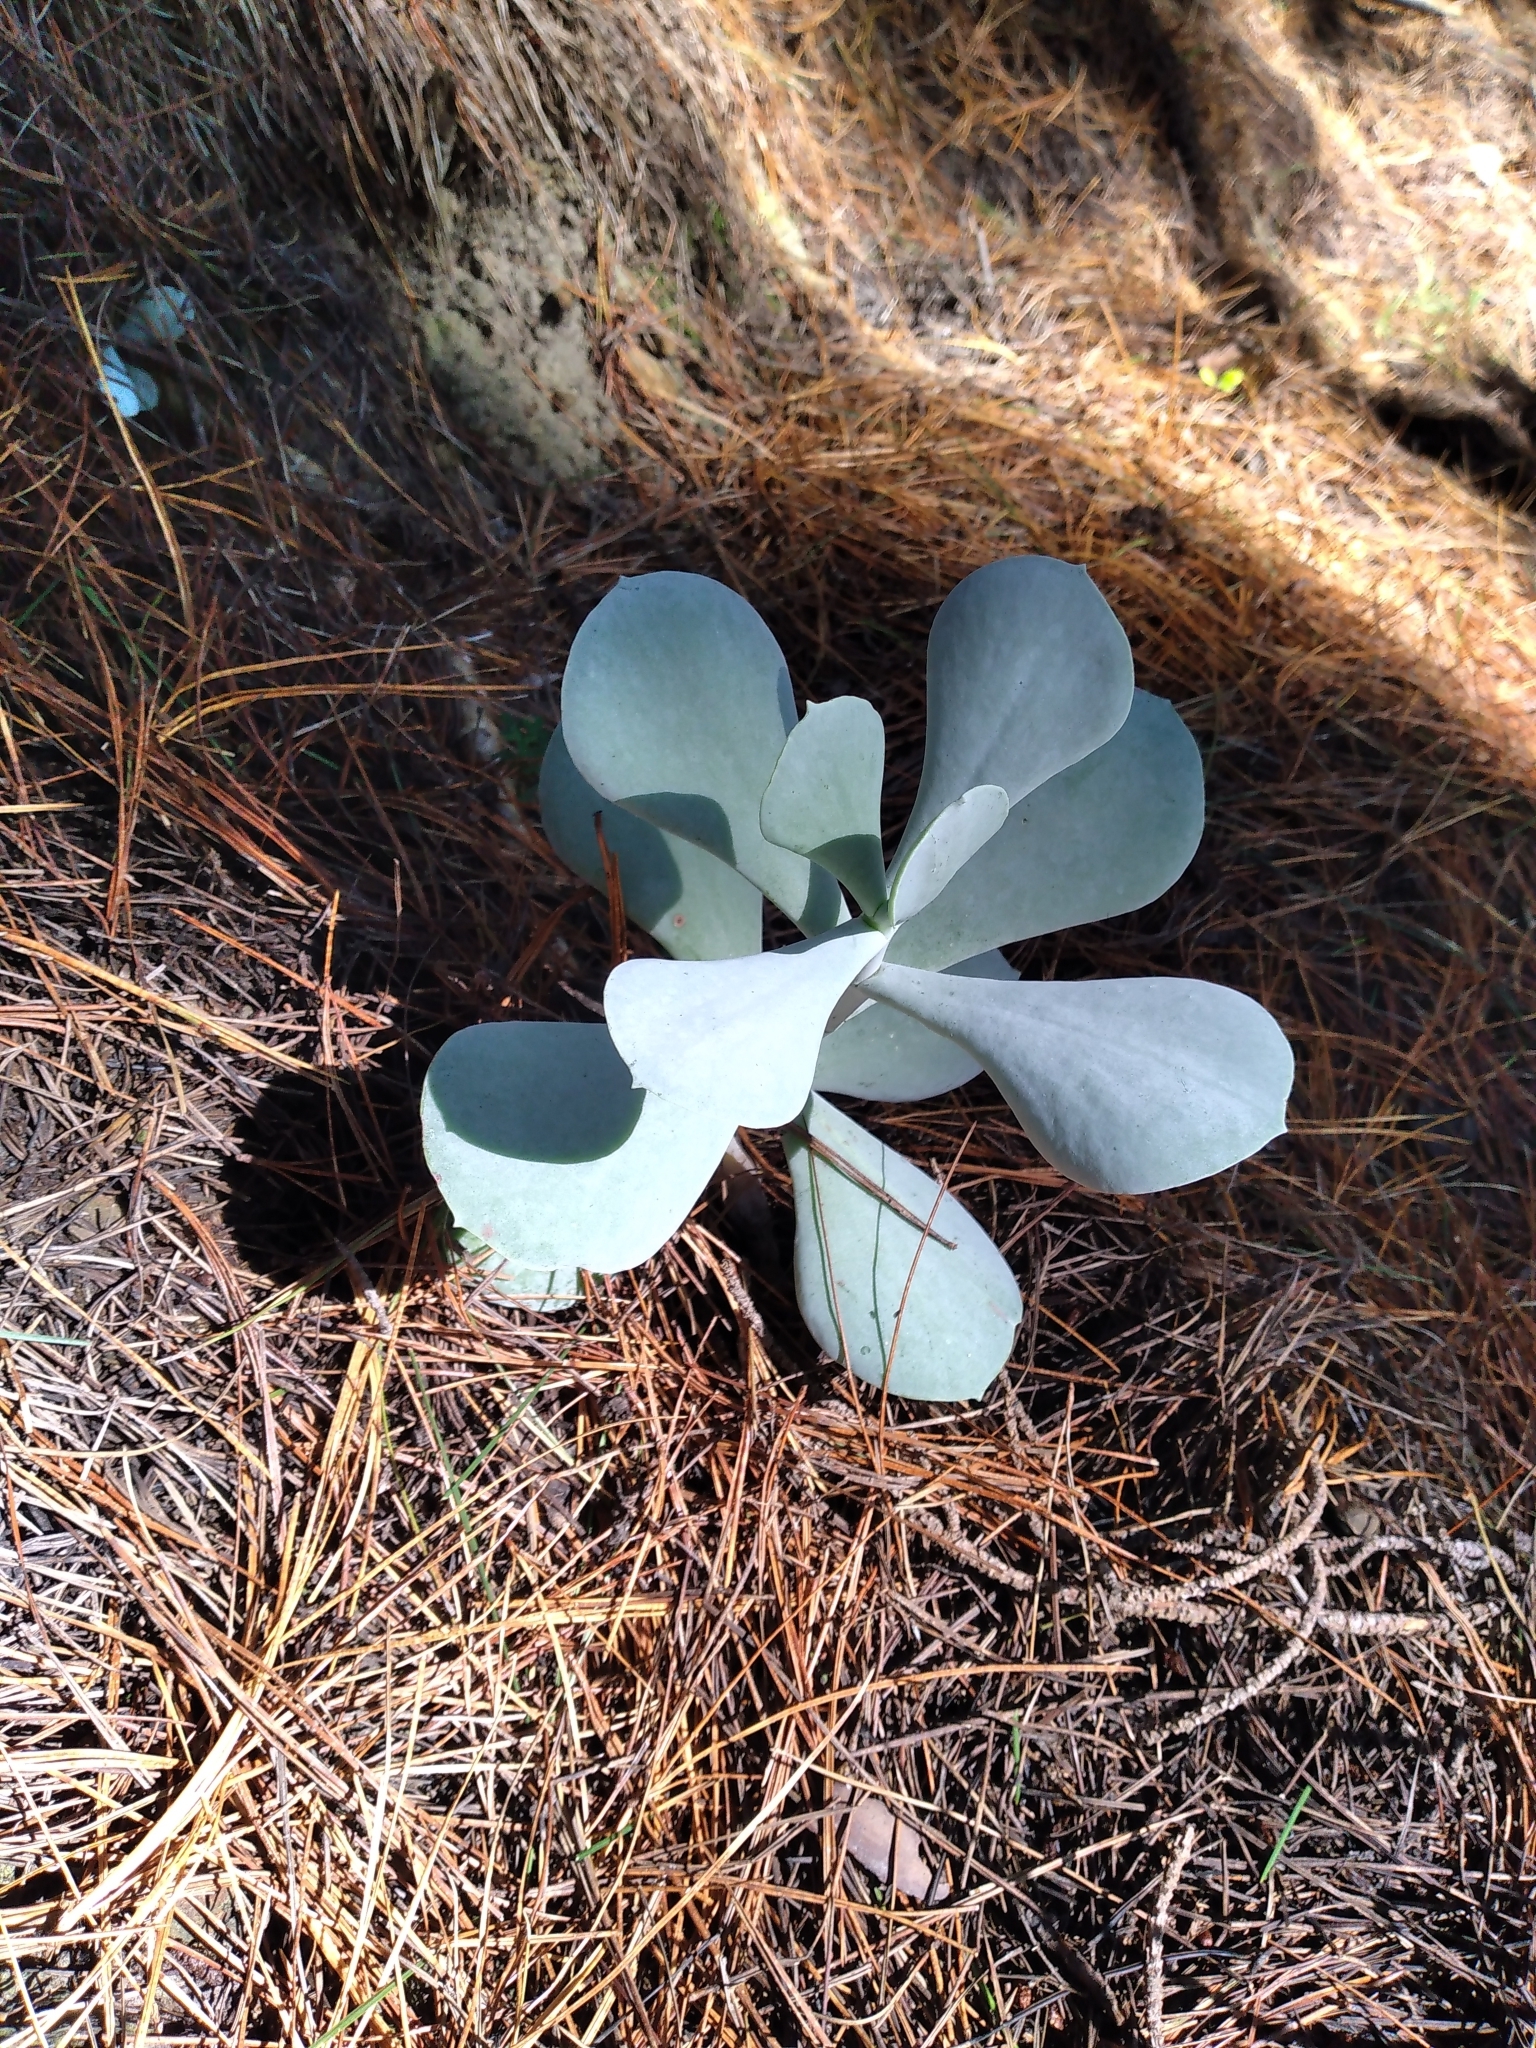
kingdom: Plantae
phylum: Tracheophyta
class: Magnoliopsida
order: Saxifragales
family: Crassulaceae
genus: Cotyledon
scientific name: Cotyledon orbiculata
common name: Pig's ear
